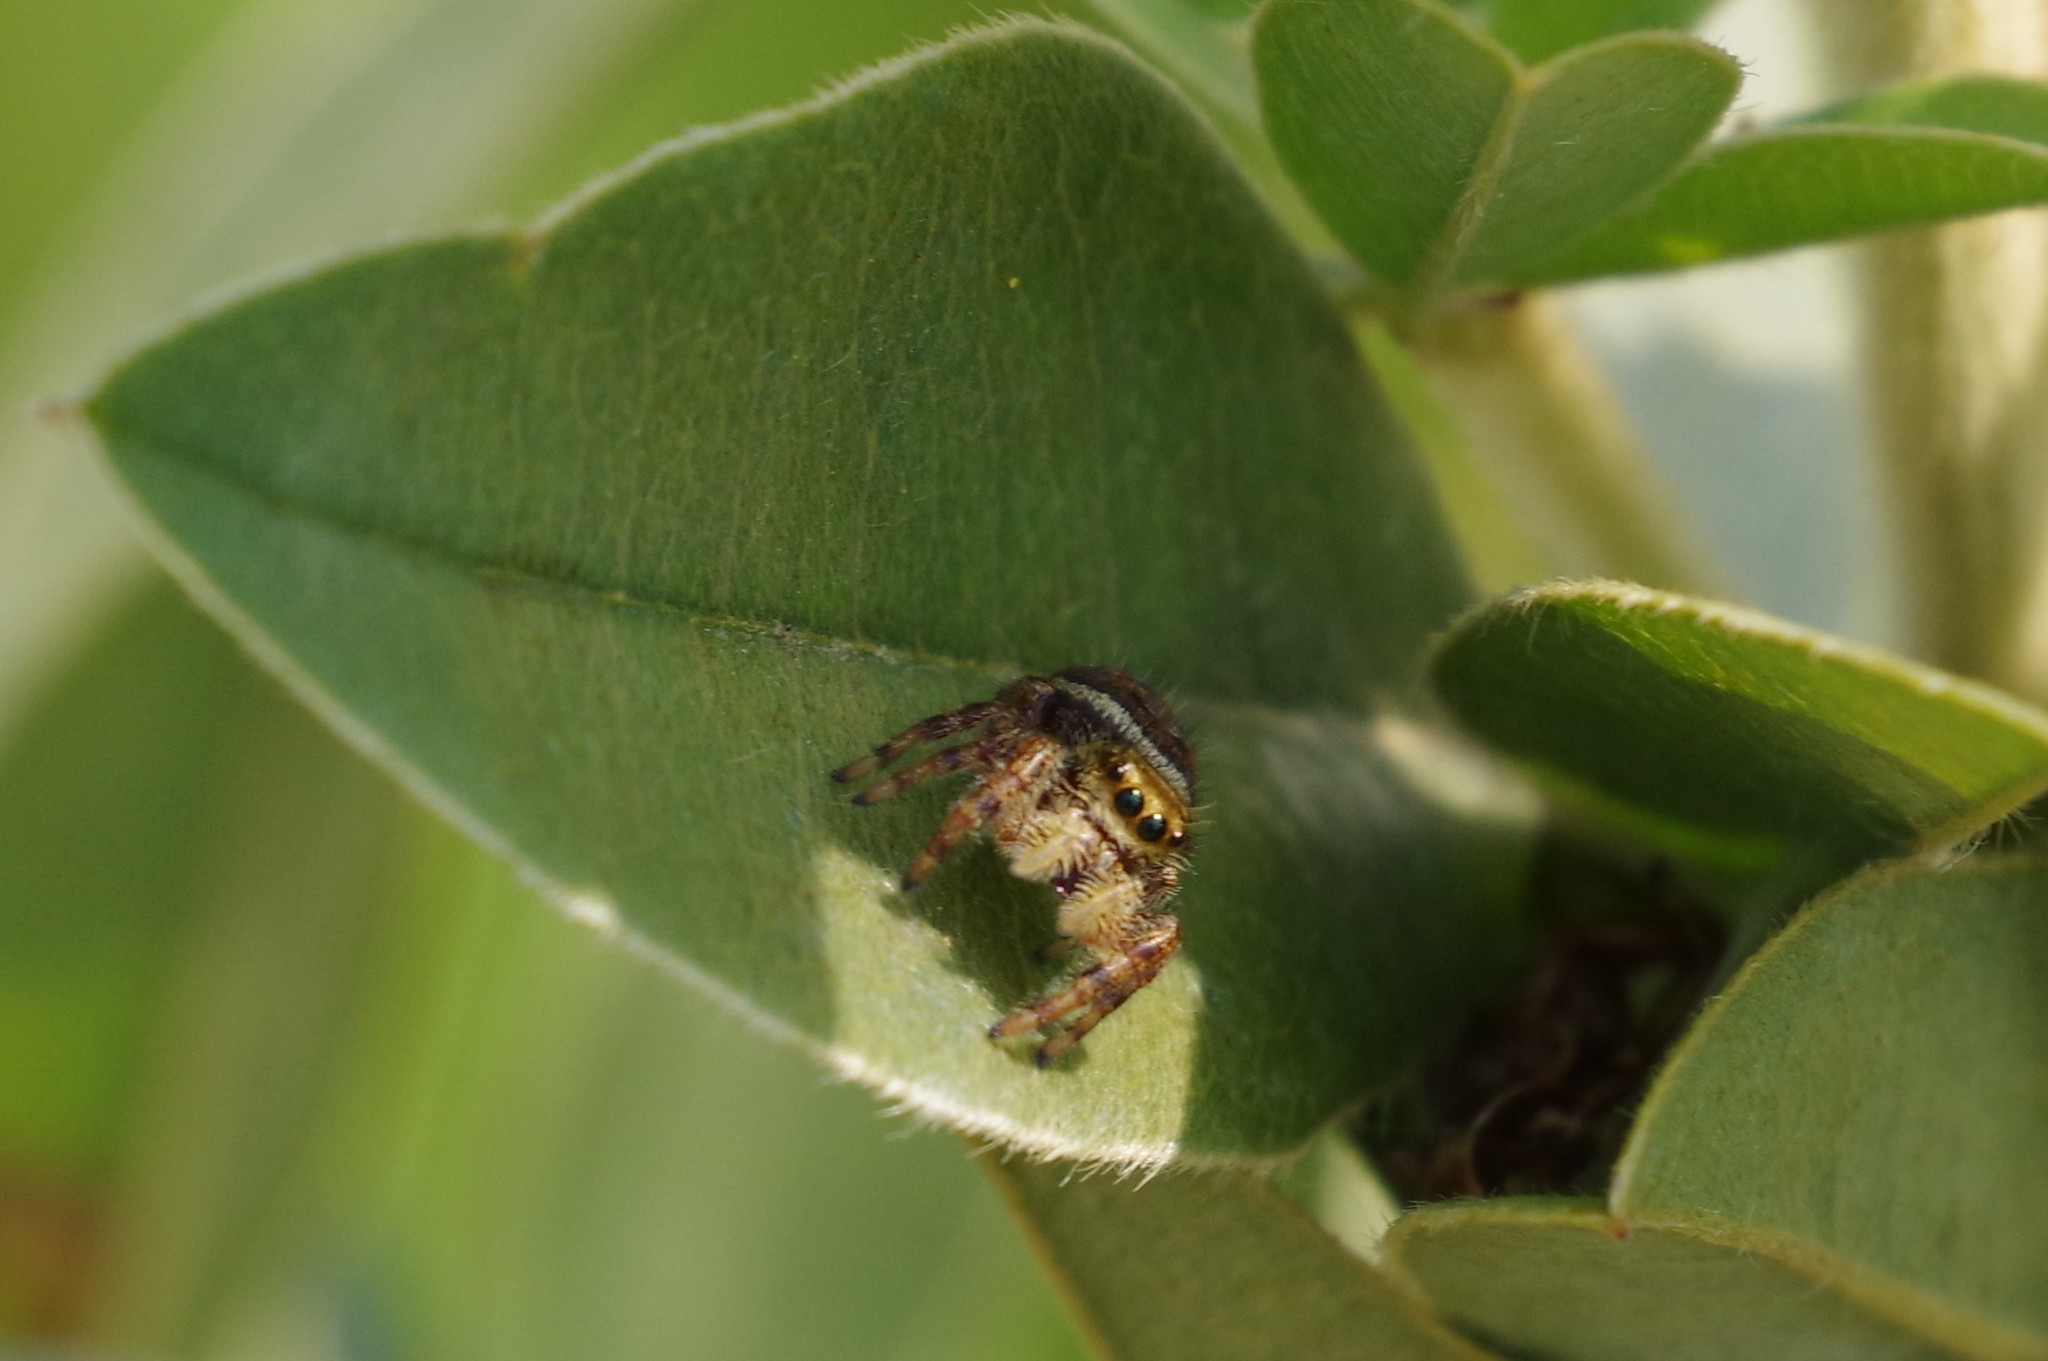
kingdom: Animalia
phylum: Arthropoda
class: Arachnida
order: Araneae
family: Salticidae
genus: Phidippus
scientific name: Phidippus clarus
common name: Brilliant jumping spider
